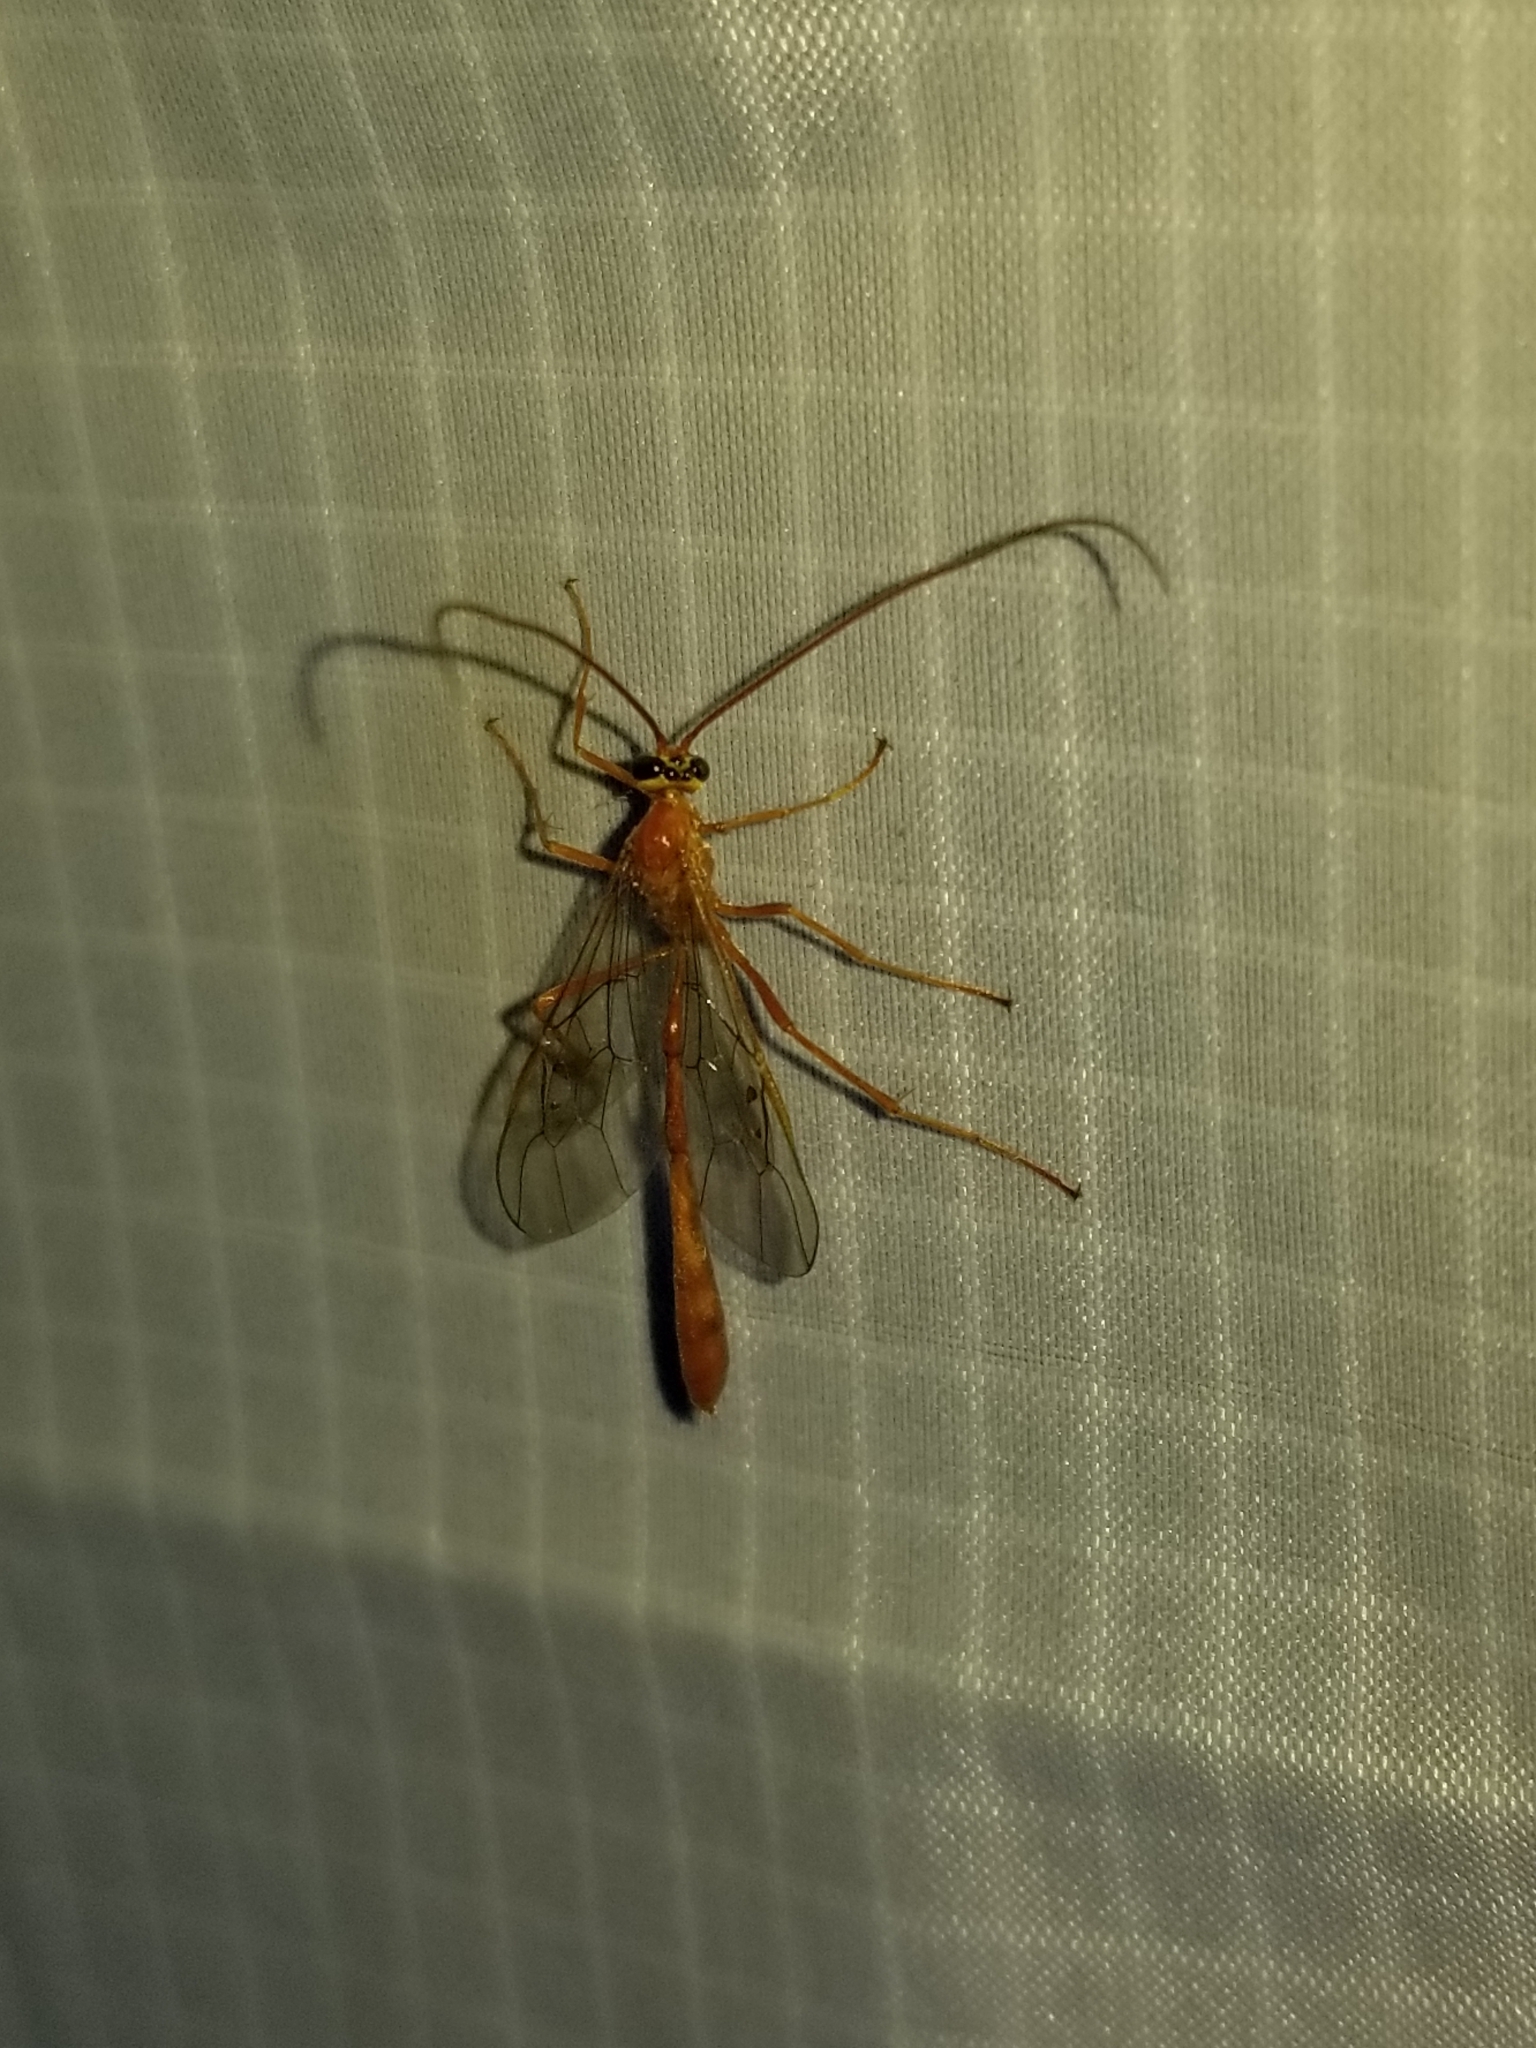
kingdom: Animalia
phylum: Arthropoda
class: Insecta
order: Hymenoptera
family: Ichneumonidae
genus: Enicospilus
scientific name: Enicospilus purgatus
